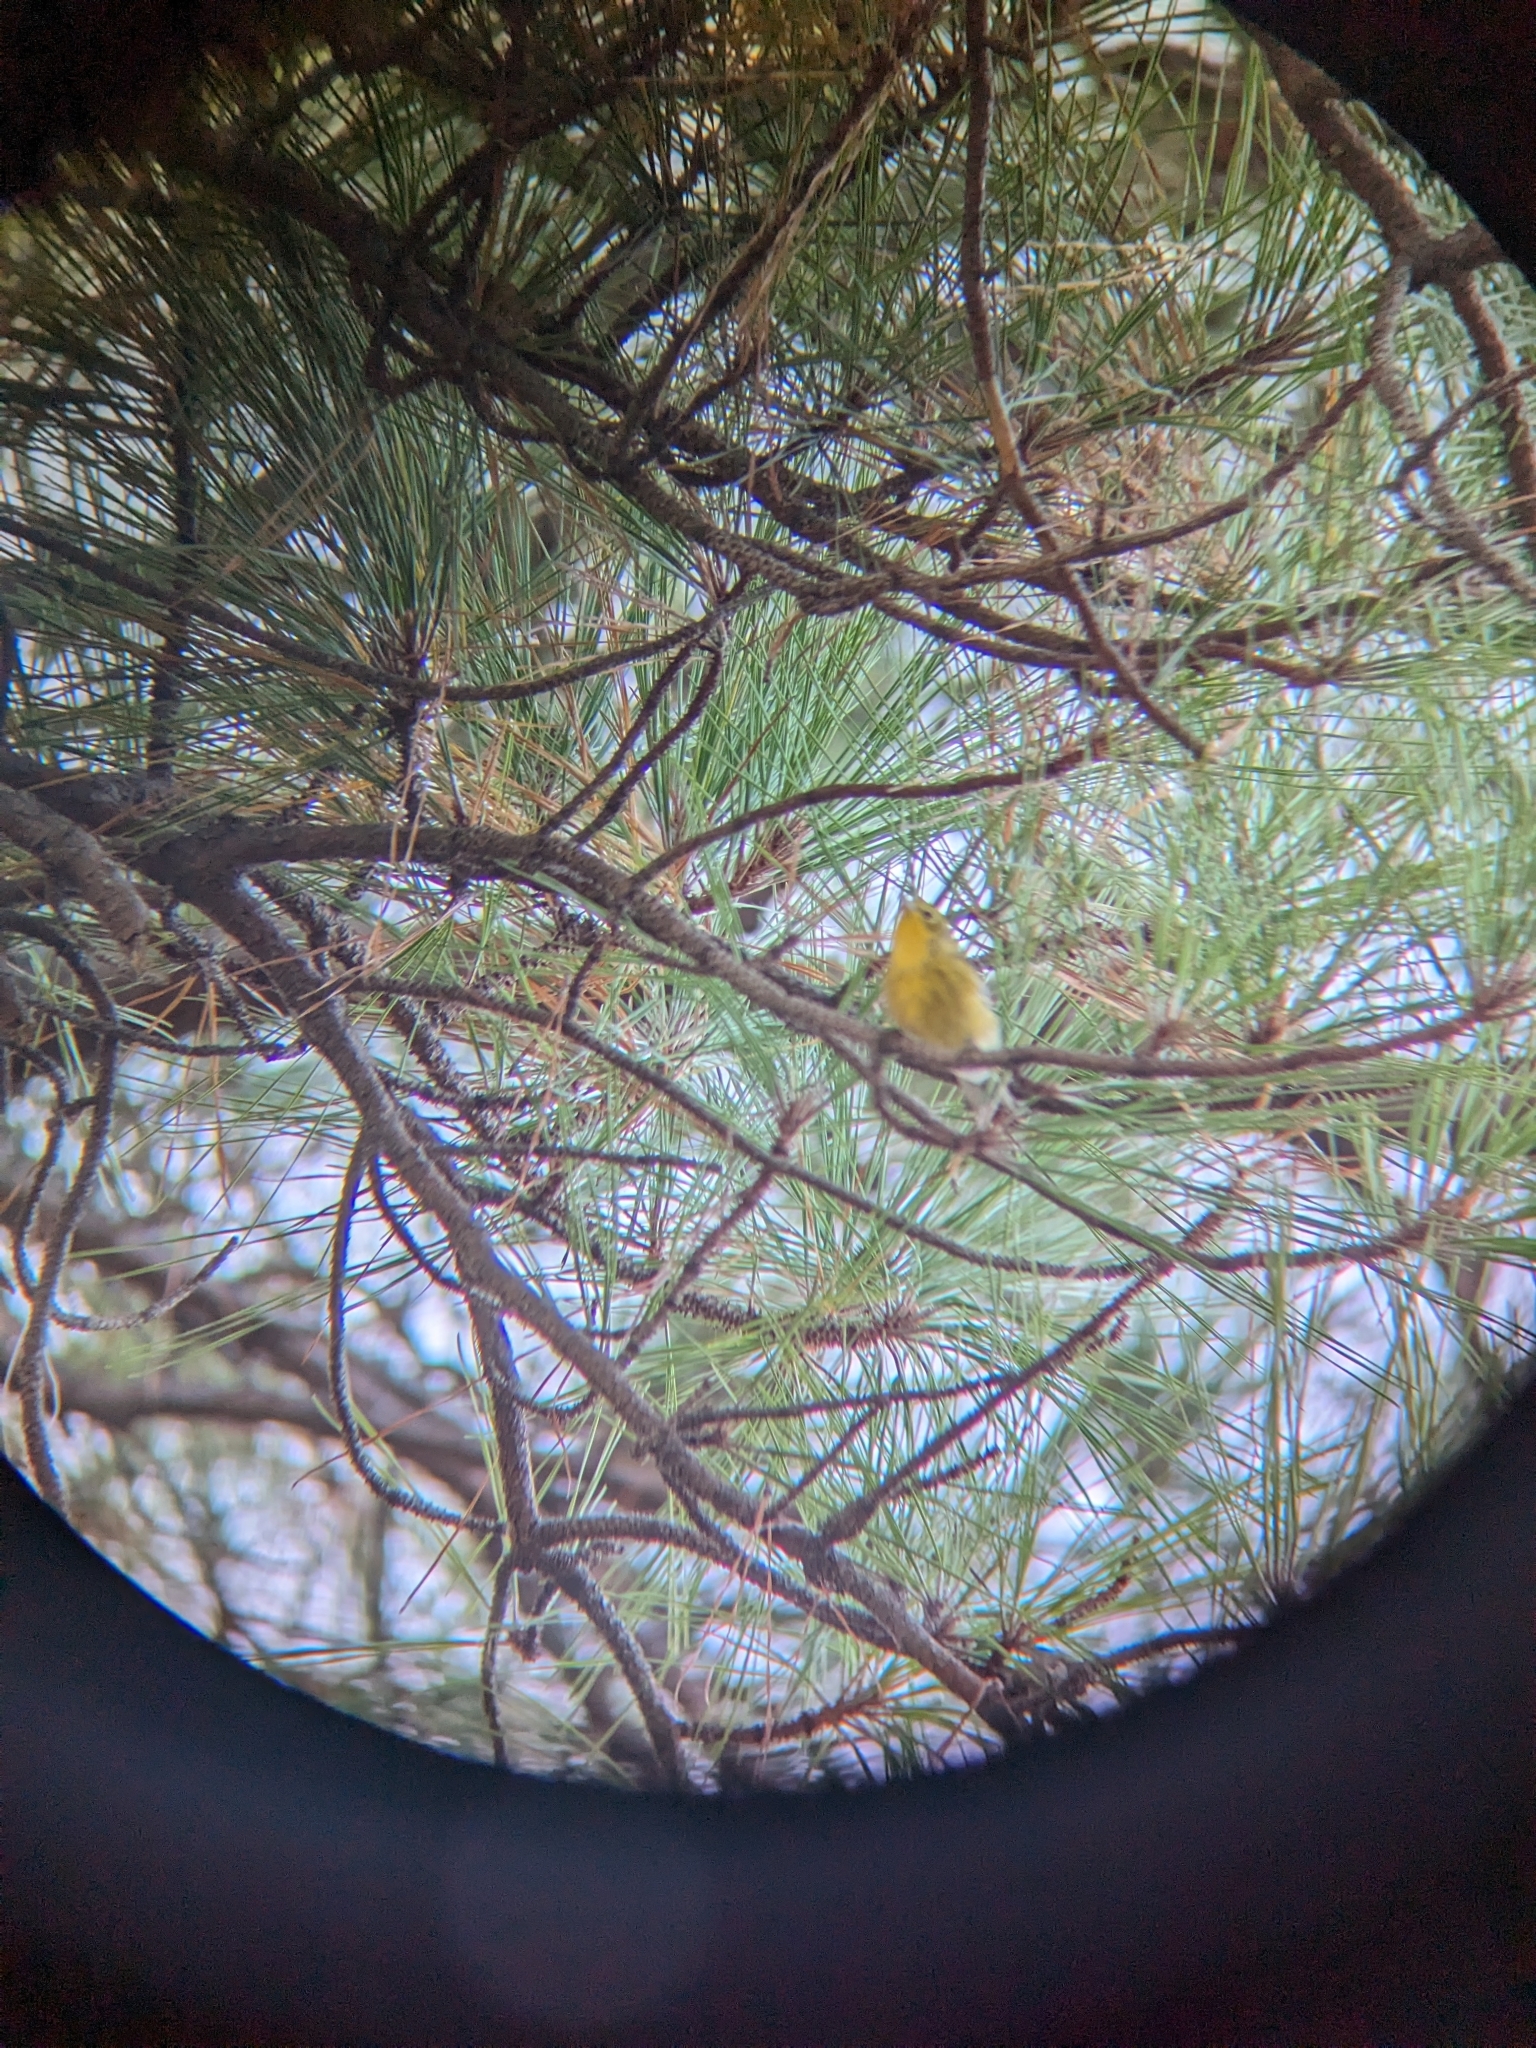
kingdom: Animalia
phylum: Chordata
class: Aves
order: Passeriformes
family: Parulidae
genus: Setophaga
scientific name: Setophaga pinus
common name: Pine warbler
